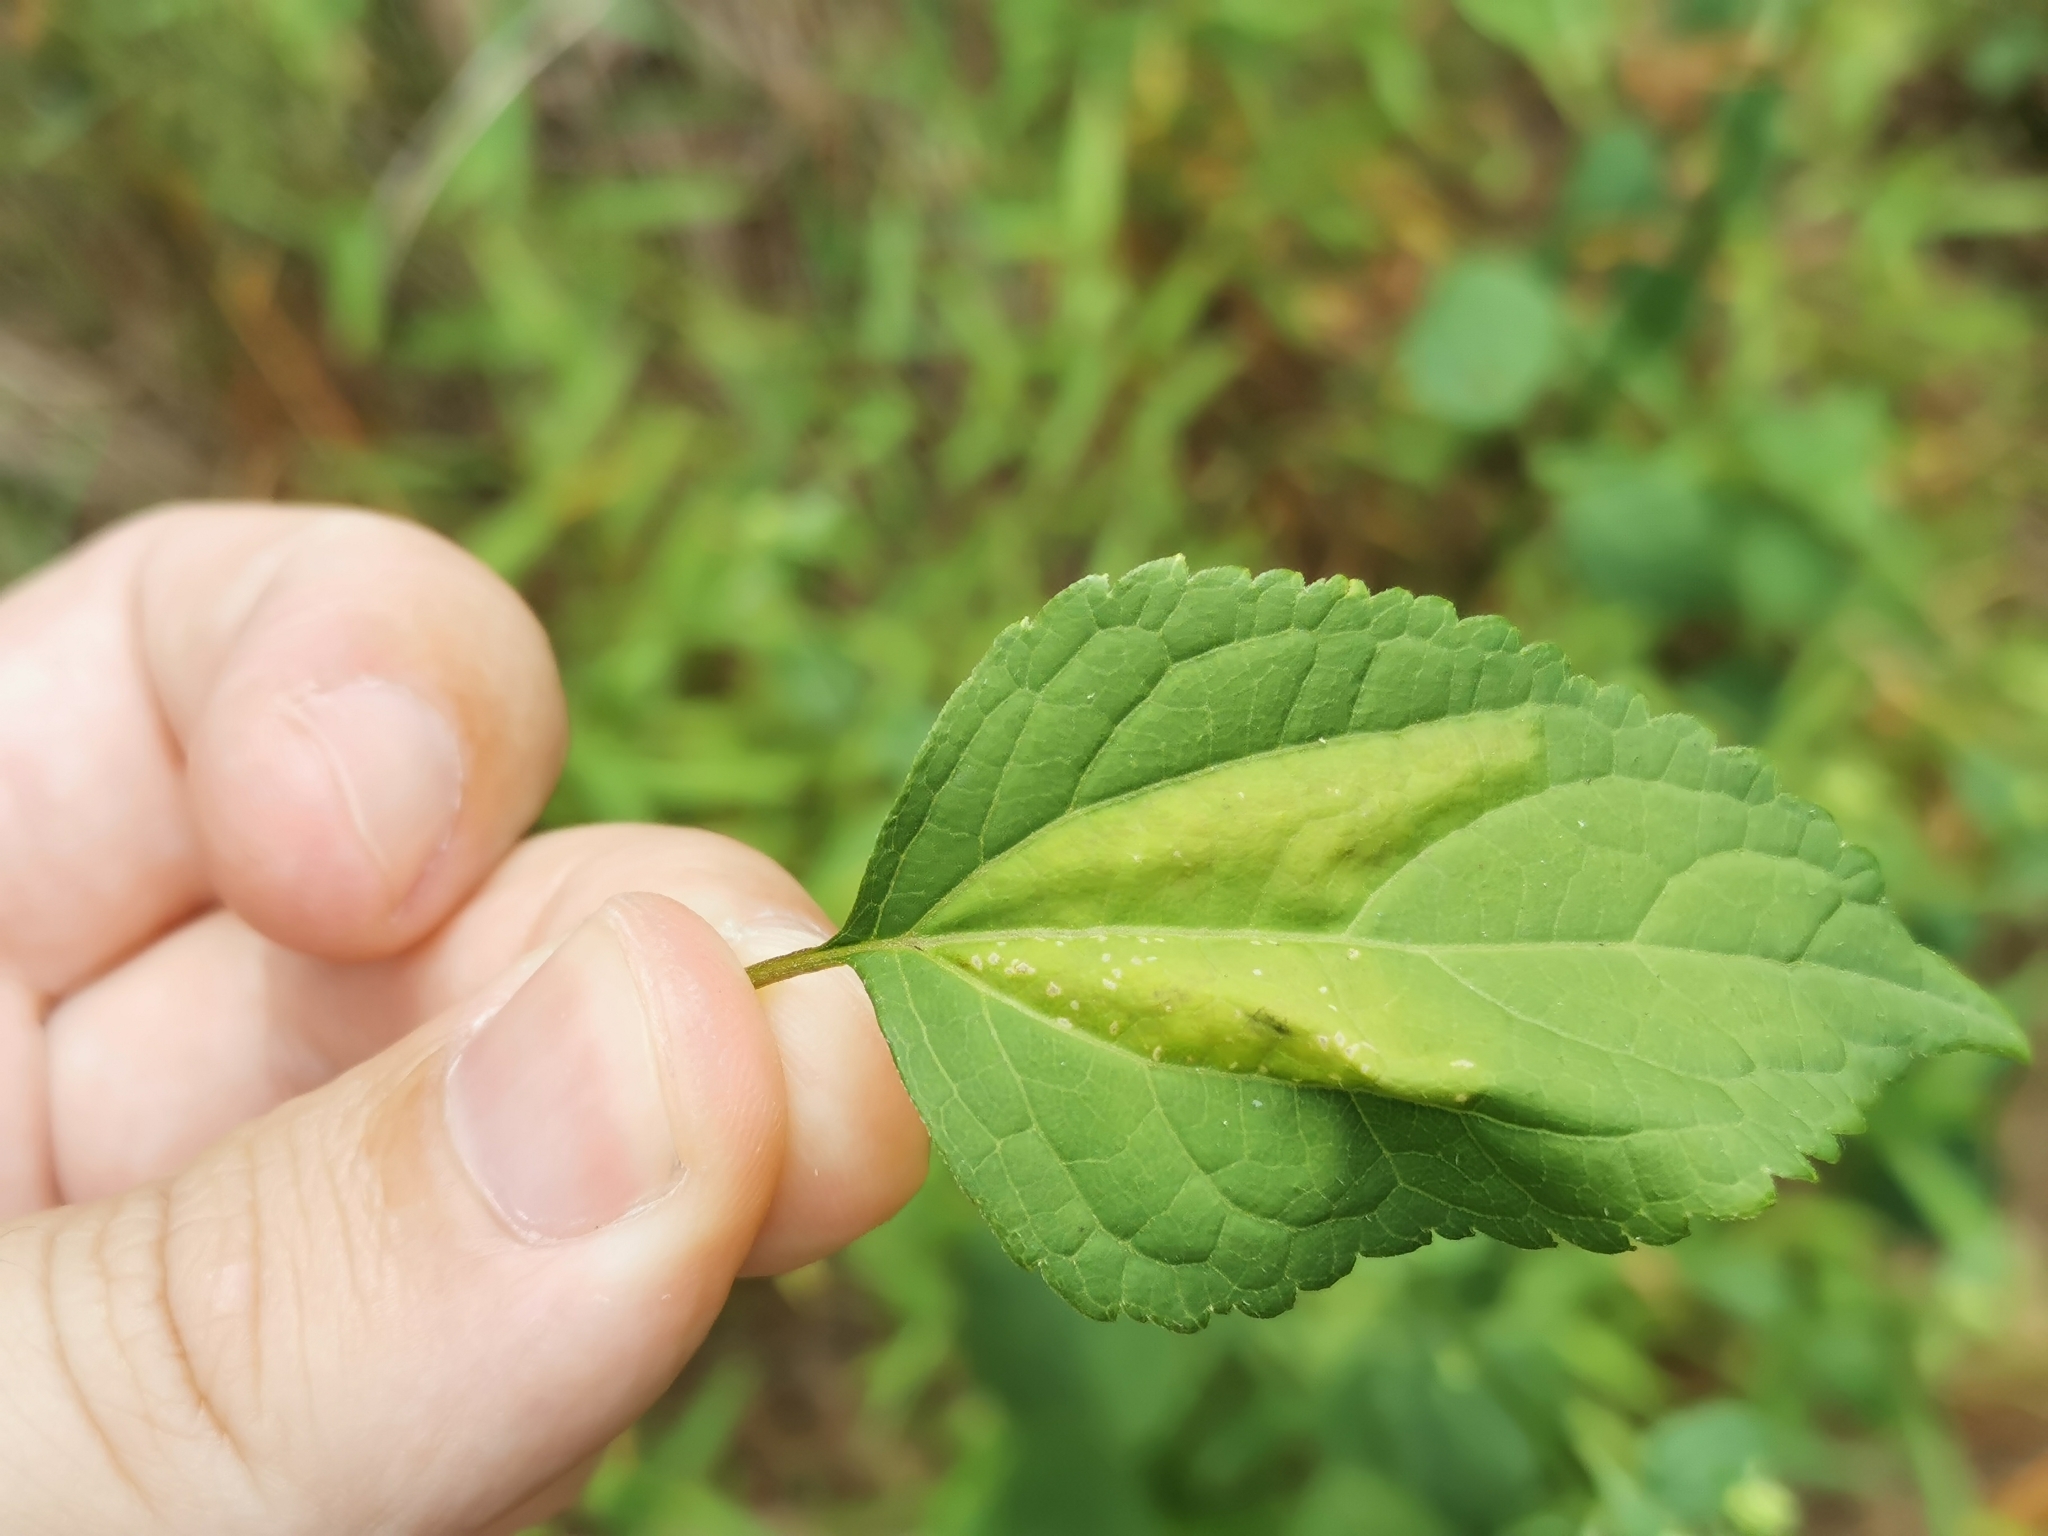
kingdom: Animalia
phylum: Arthropoda
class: Insecta
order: Lepidoptera
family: Gracillariidae
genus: Leucospilapteryx
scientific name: Leucospilapteryx venustella
